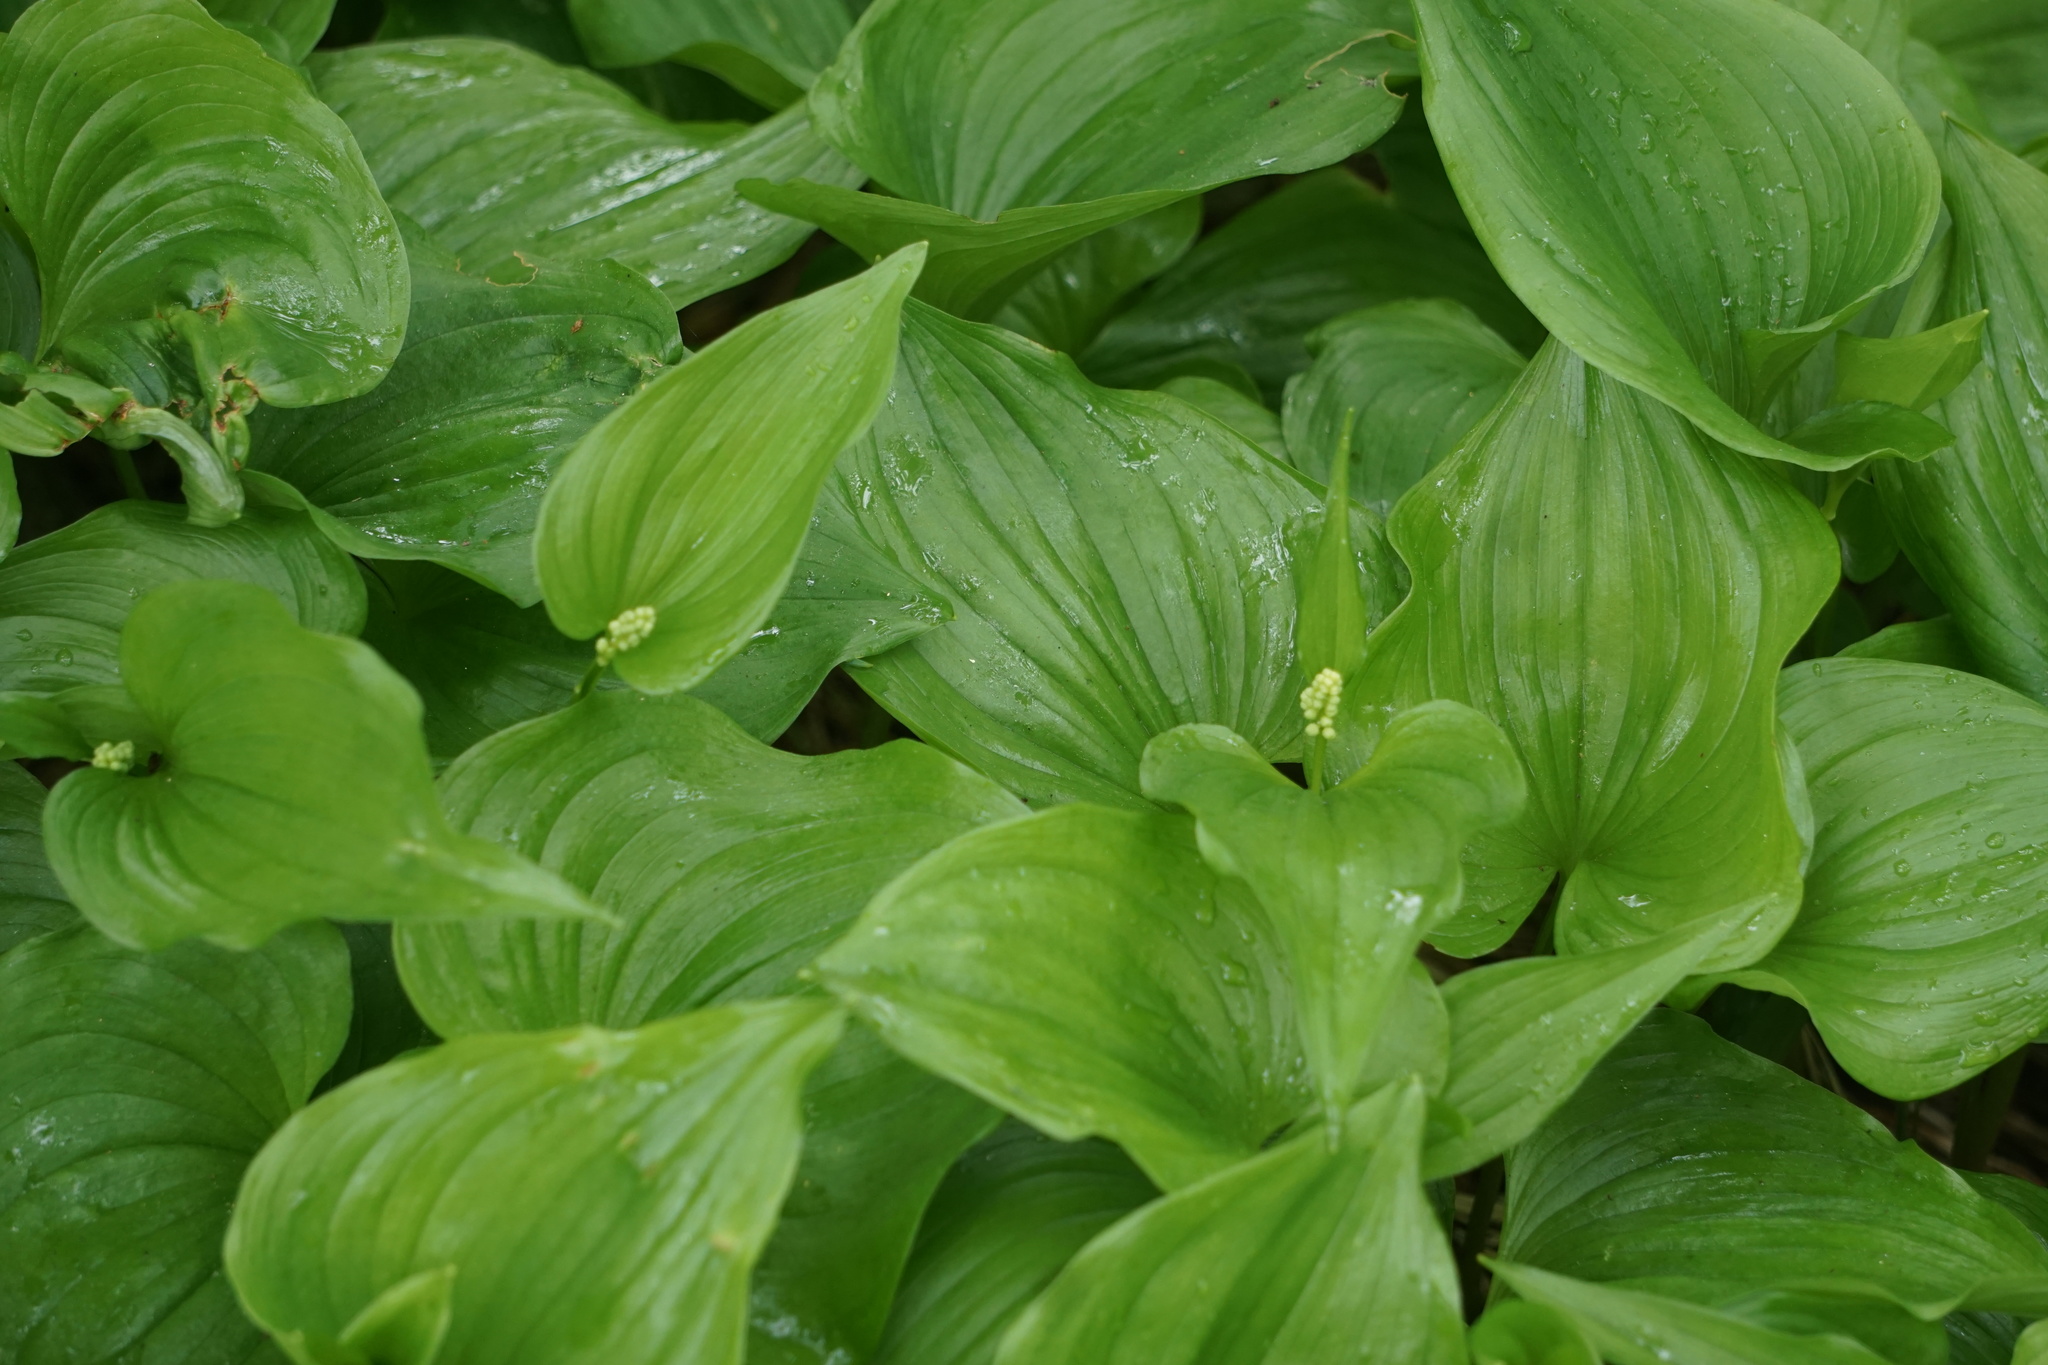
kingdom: Plantae
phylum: Tracheophyta
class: Liliopsida
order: Asparagales
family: Asparagaceae
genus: Maianthemum
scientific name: Maianthemum dilatatum
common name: False lily-of-the-valley
